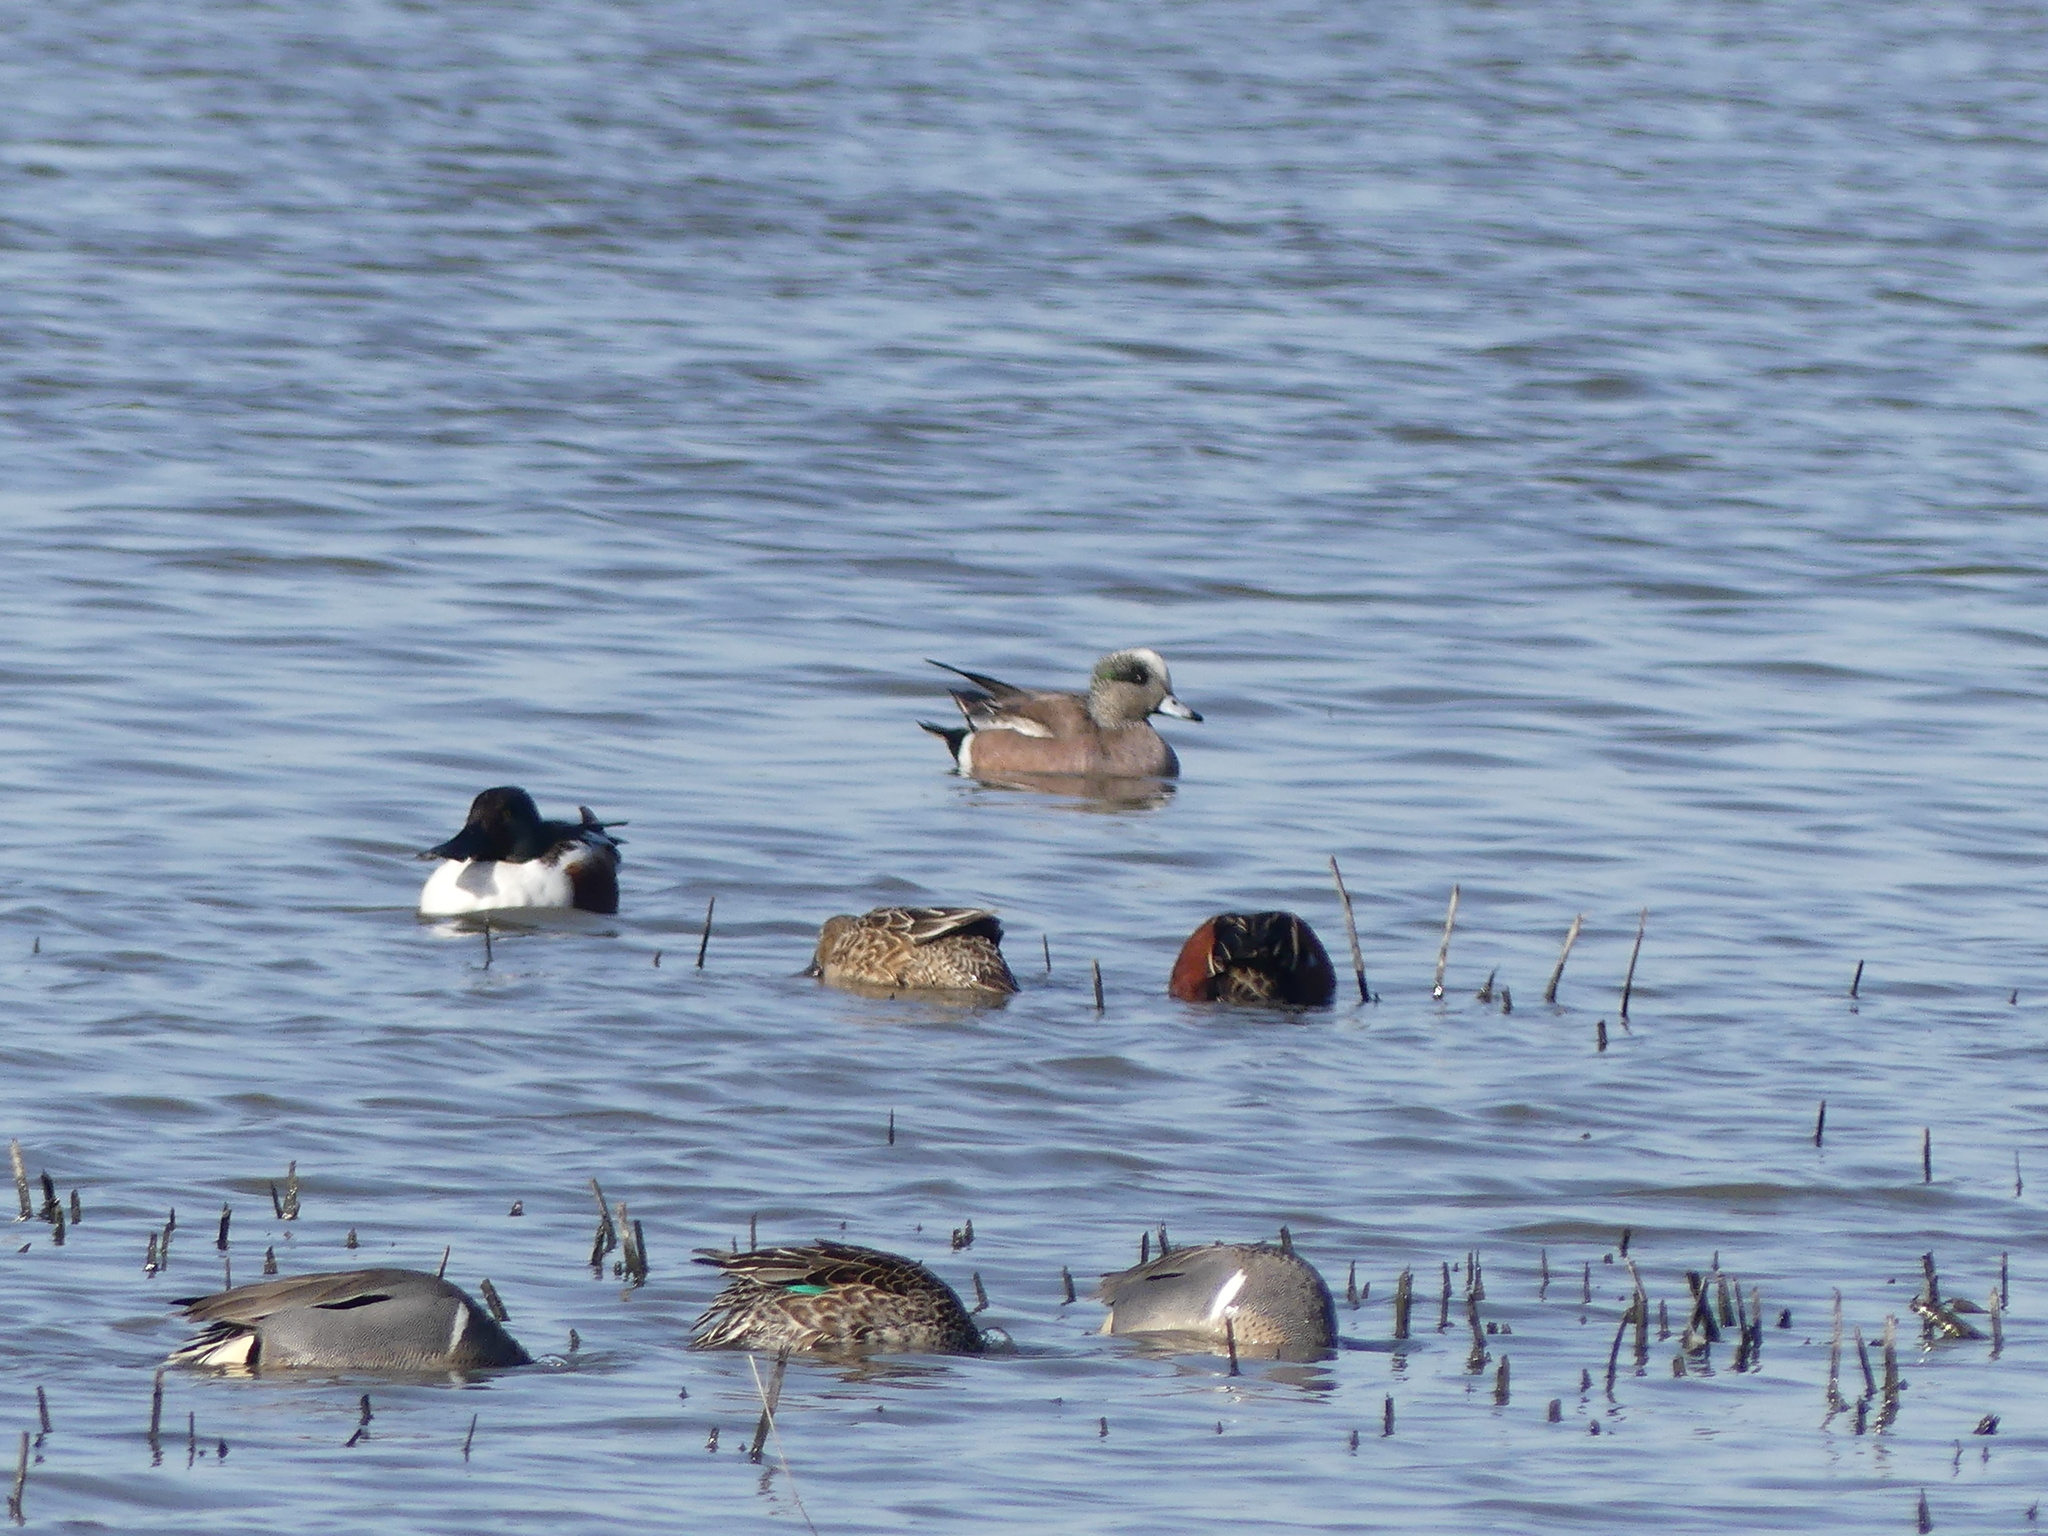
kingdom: Animalia
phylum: Chordata
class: Aves
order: Anseriformes
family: Anatidae
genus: Mareca
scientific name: Mareca americana
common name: American wigeon
